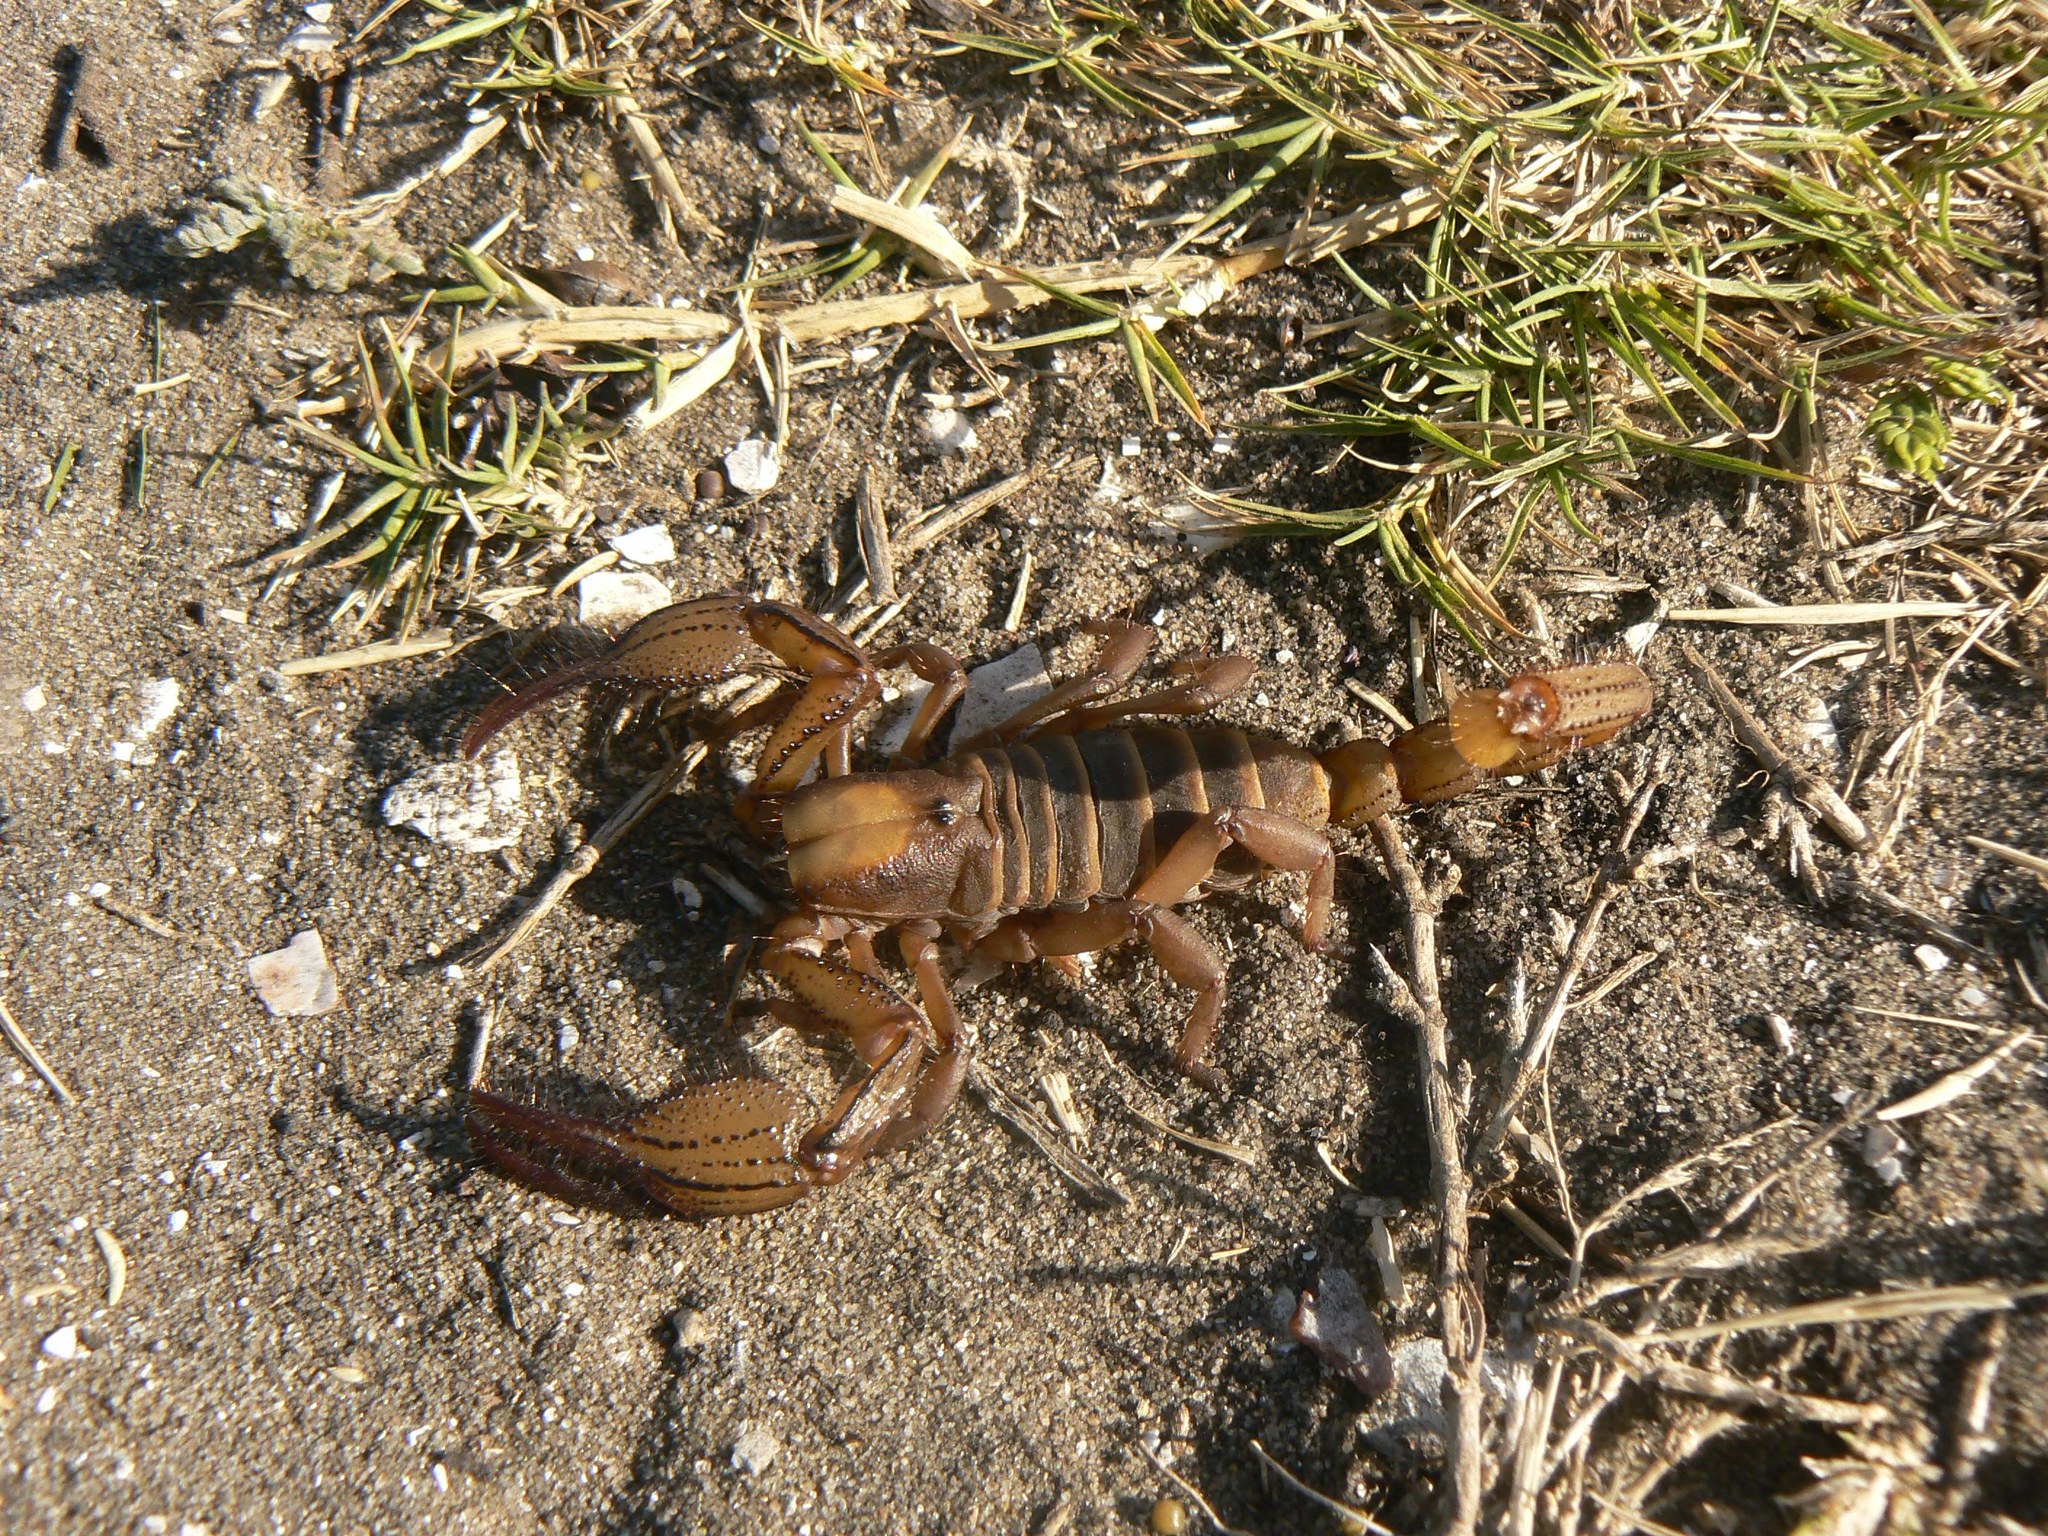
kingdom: Animalia
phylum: Arthropoda
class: Arachnida
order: Scorpiones
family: Scorpionidae
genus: Opistophthalmus
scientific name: Opistophthalmus macer
